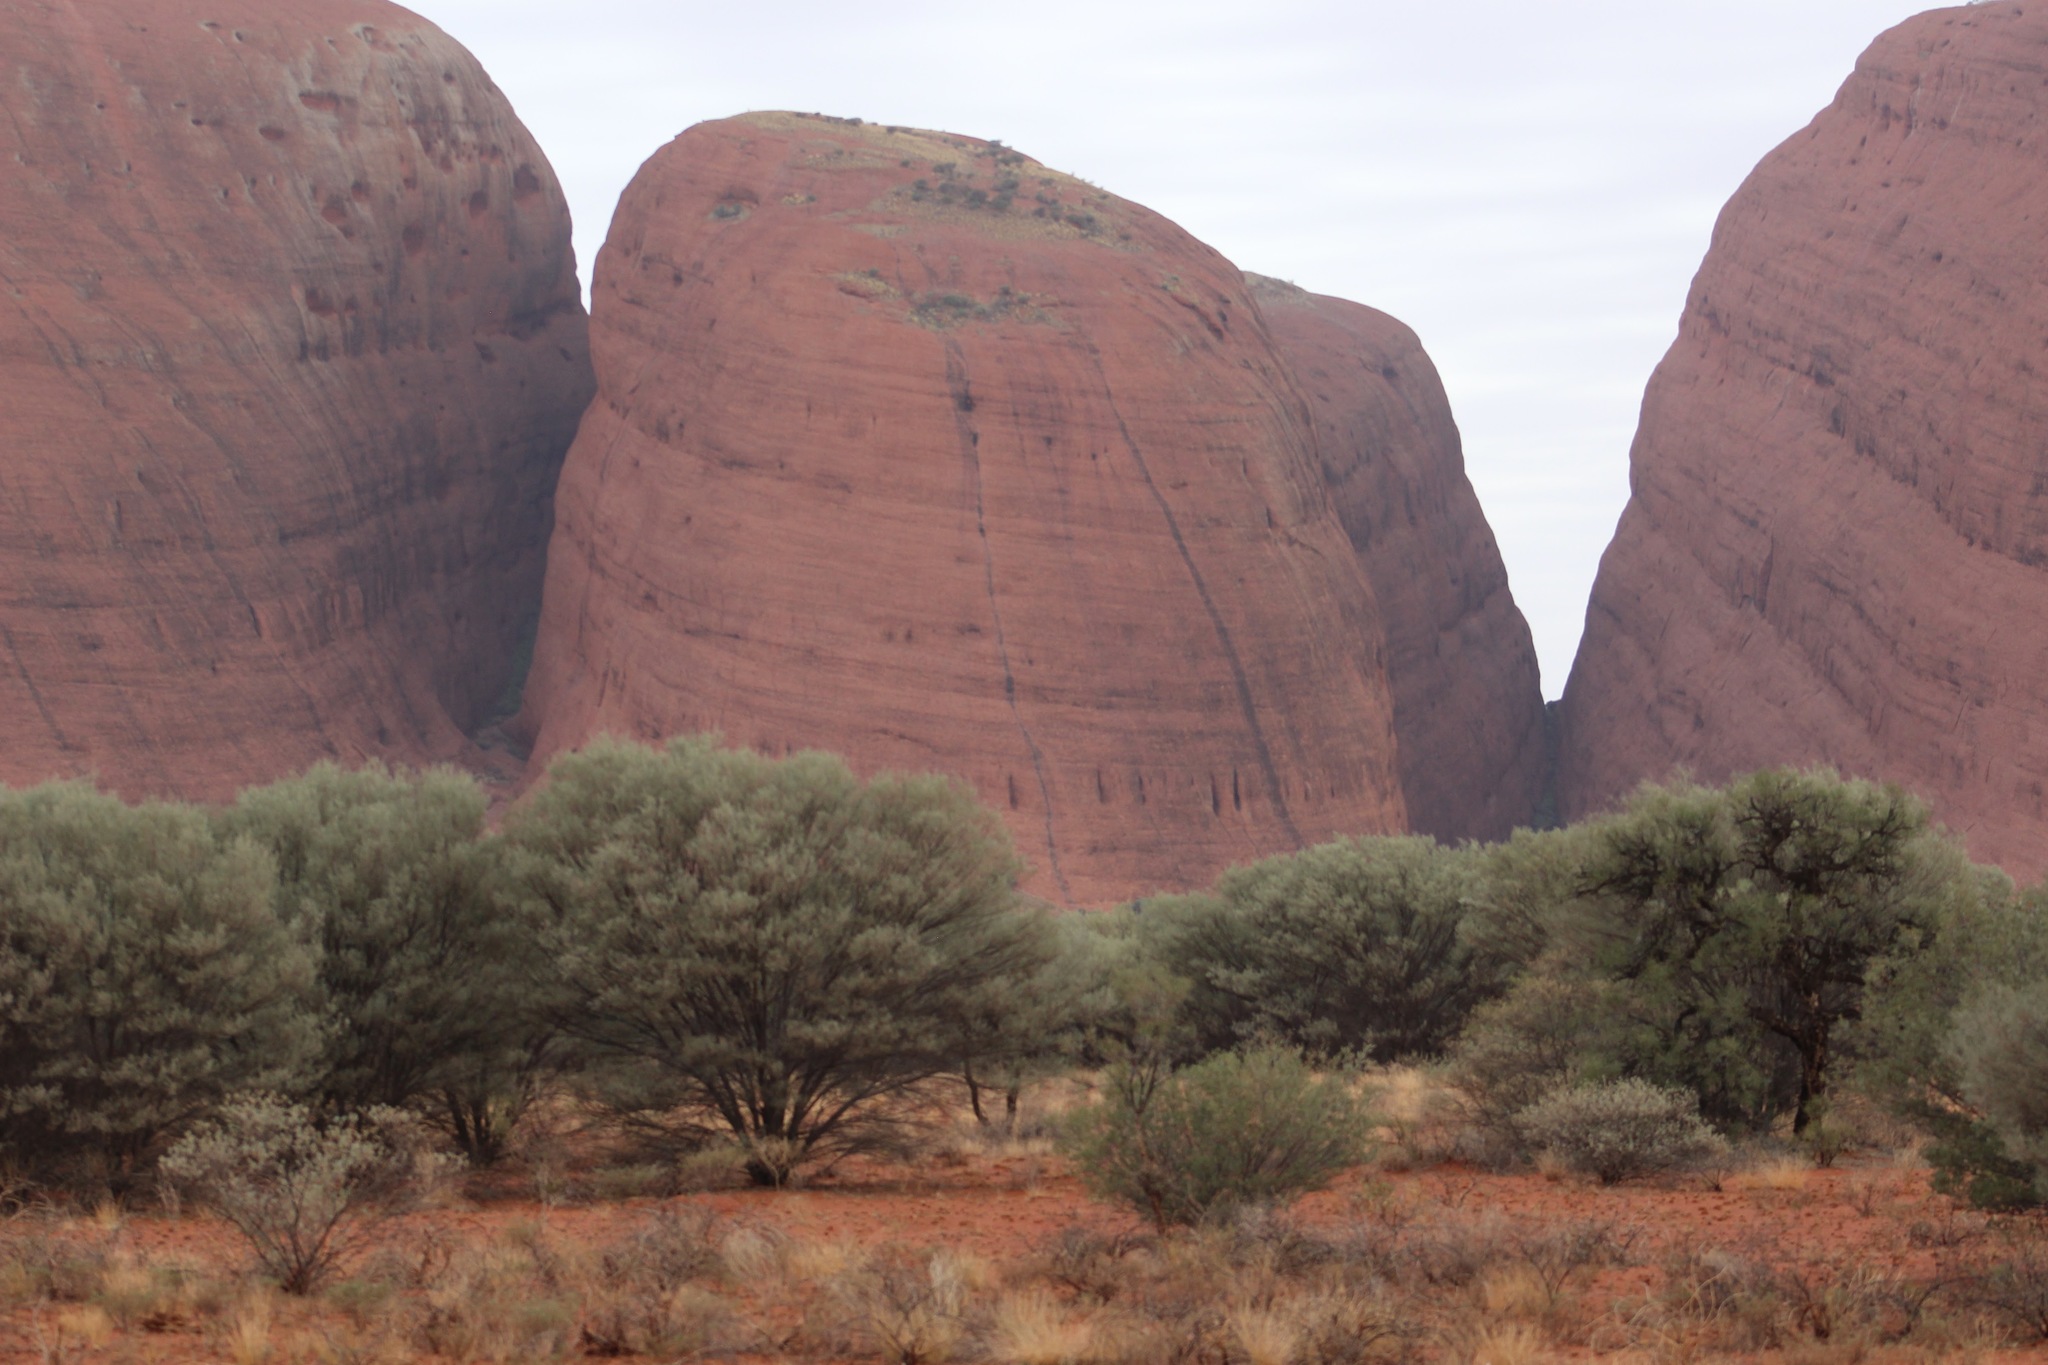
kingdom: Plantae
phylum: Tracheophyta
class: Magnoliopsida
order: Fabales
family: Fabaceae
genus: Acacia
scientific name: Acacia aneura
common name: Mulga
